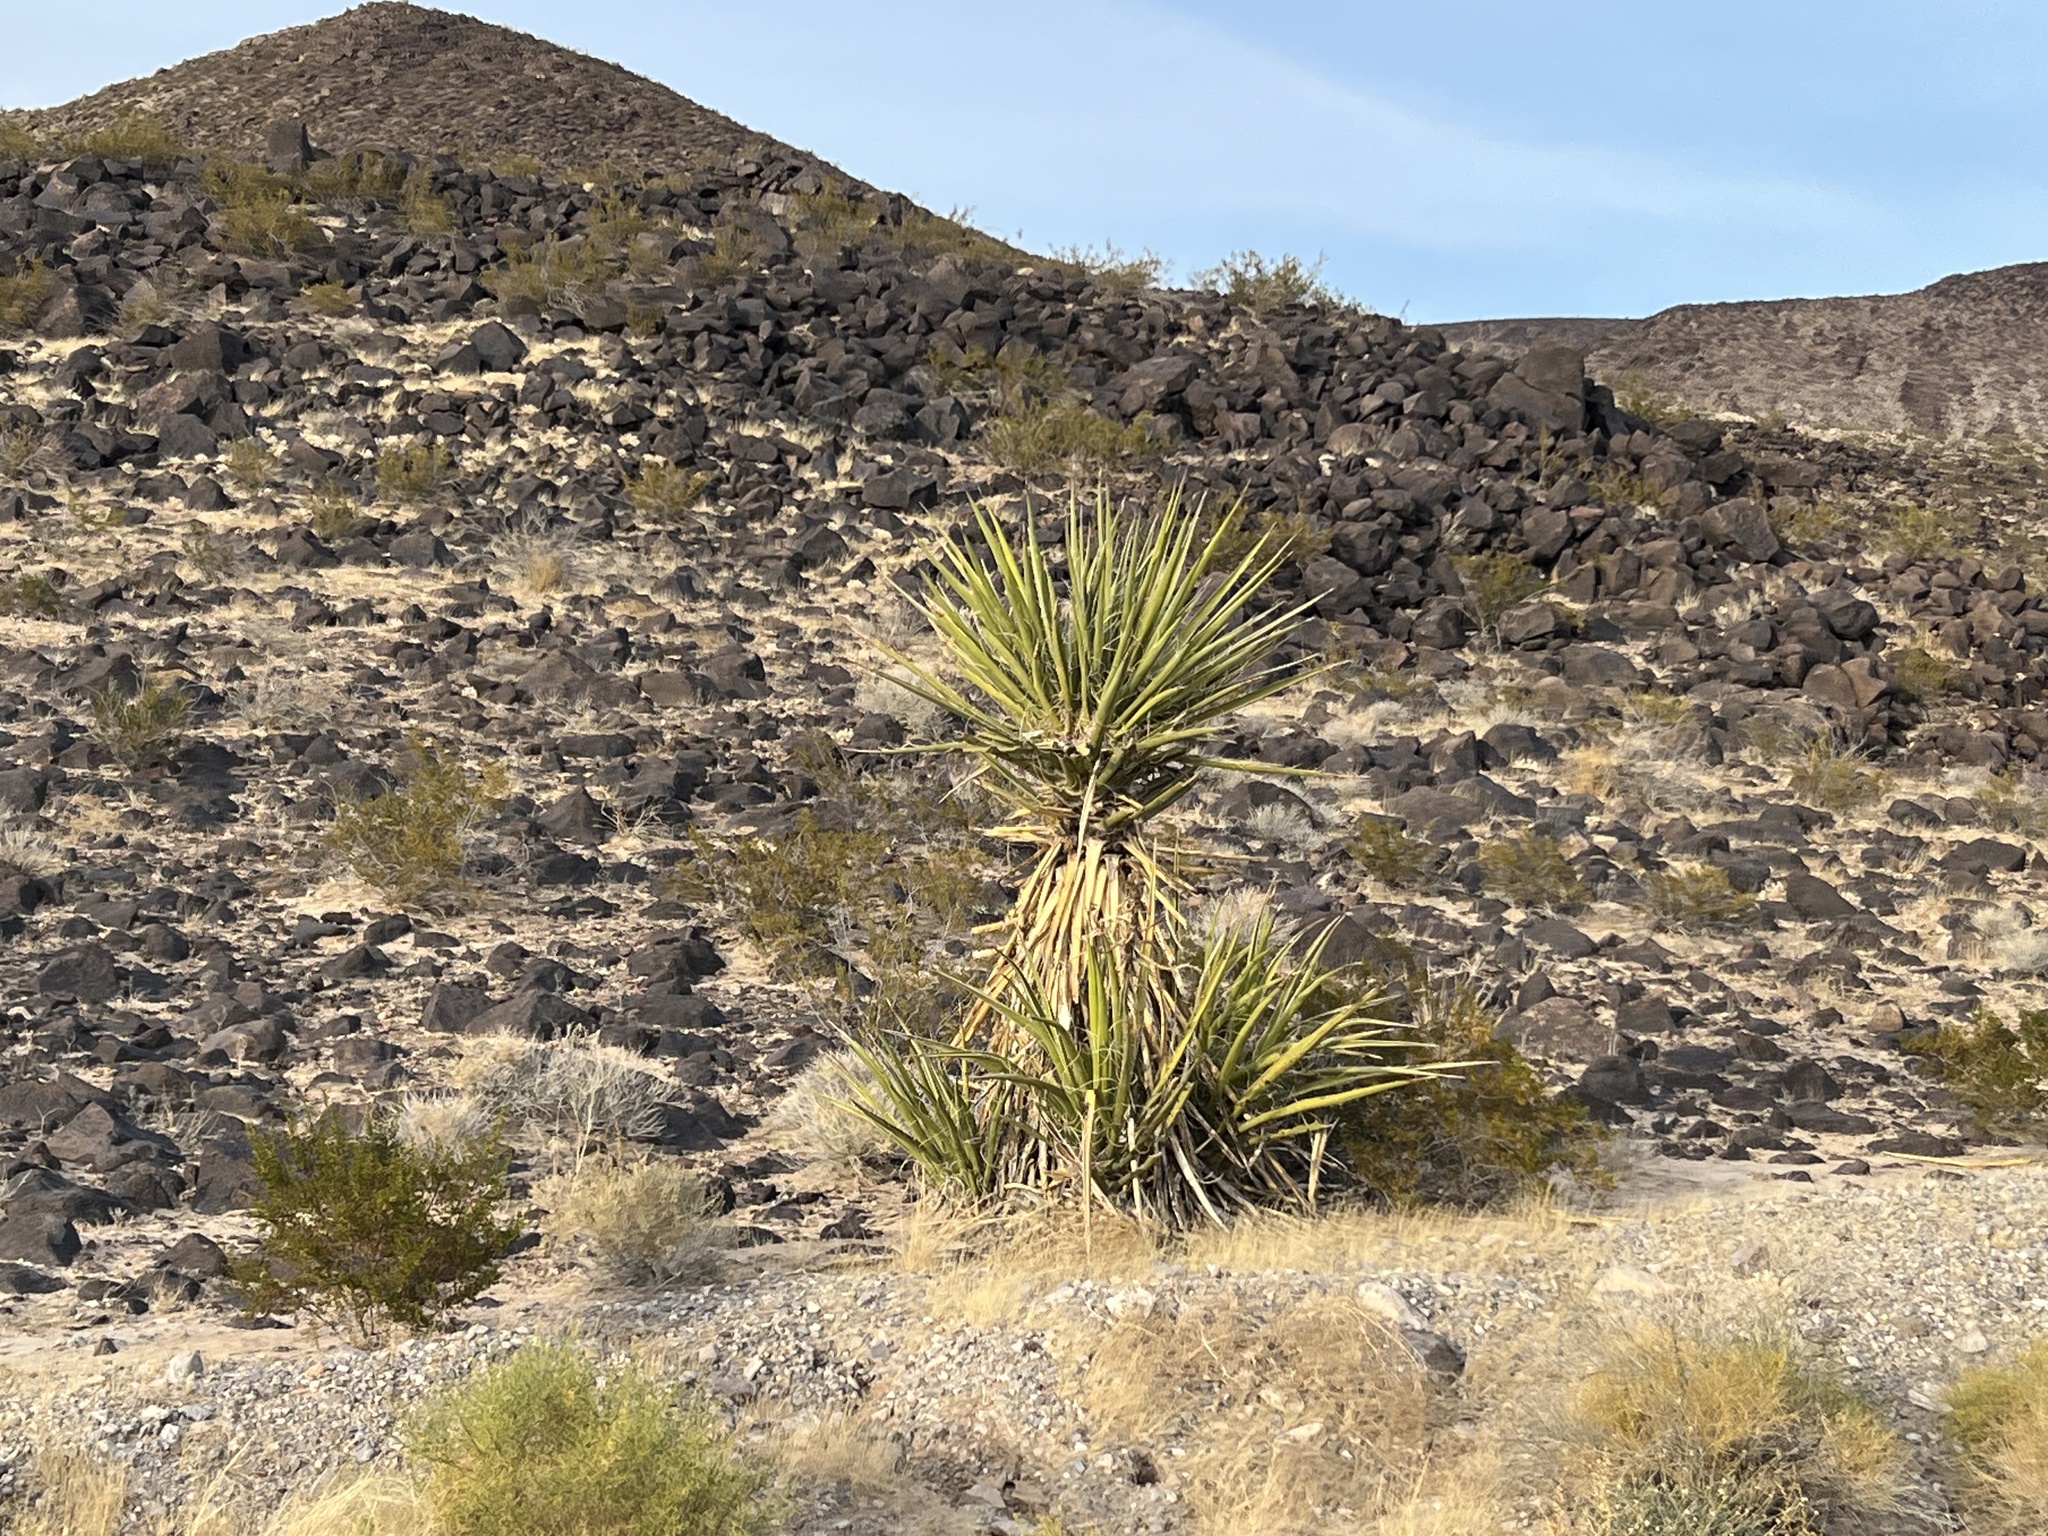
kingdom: Plantae
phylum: Tracheophyta
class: Liliopsida
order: Asparagales
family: Asparagaceae
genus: Yucca
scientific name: Yucca schidigera
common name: Mojave yucca
